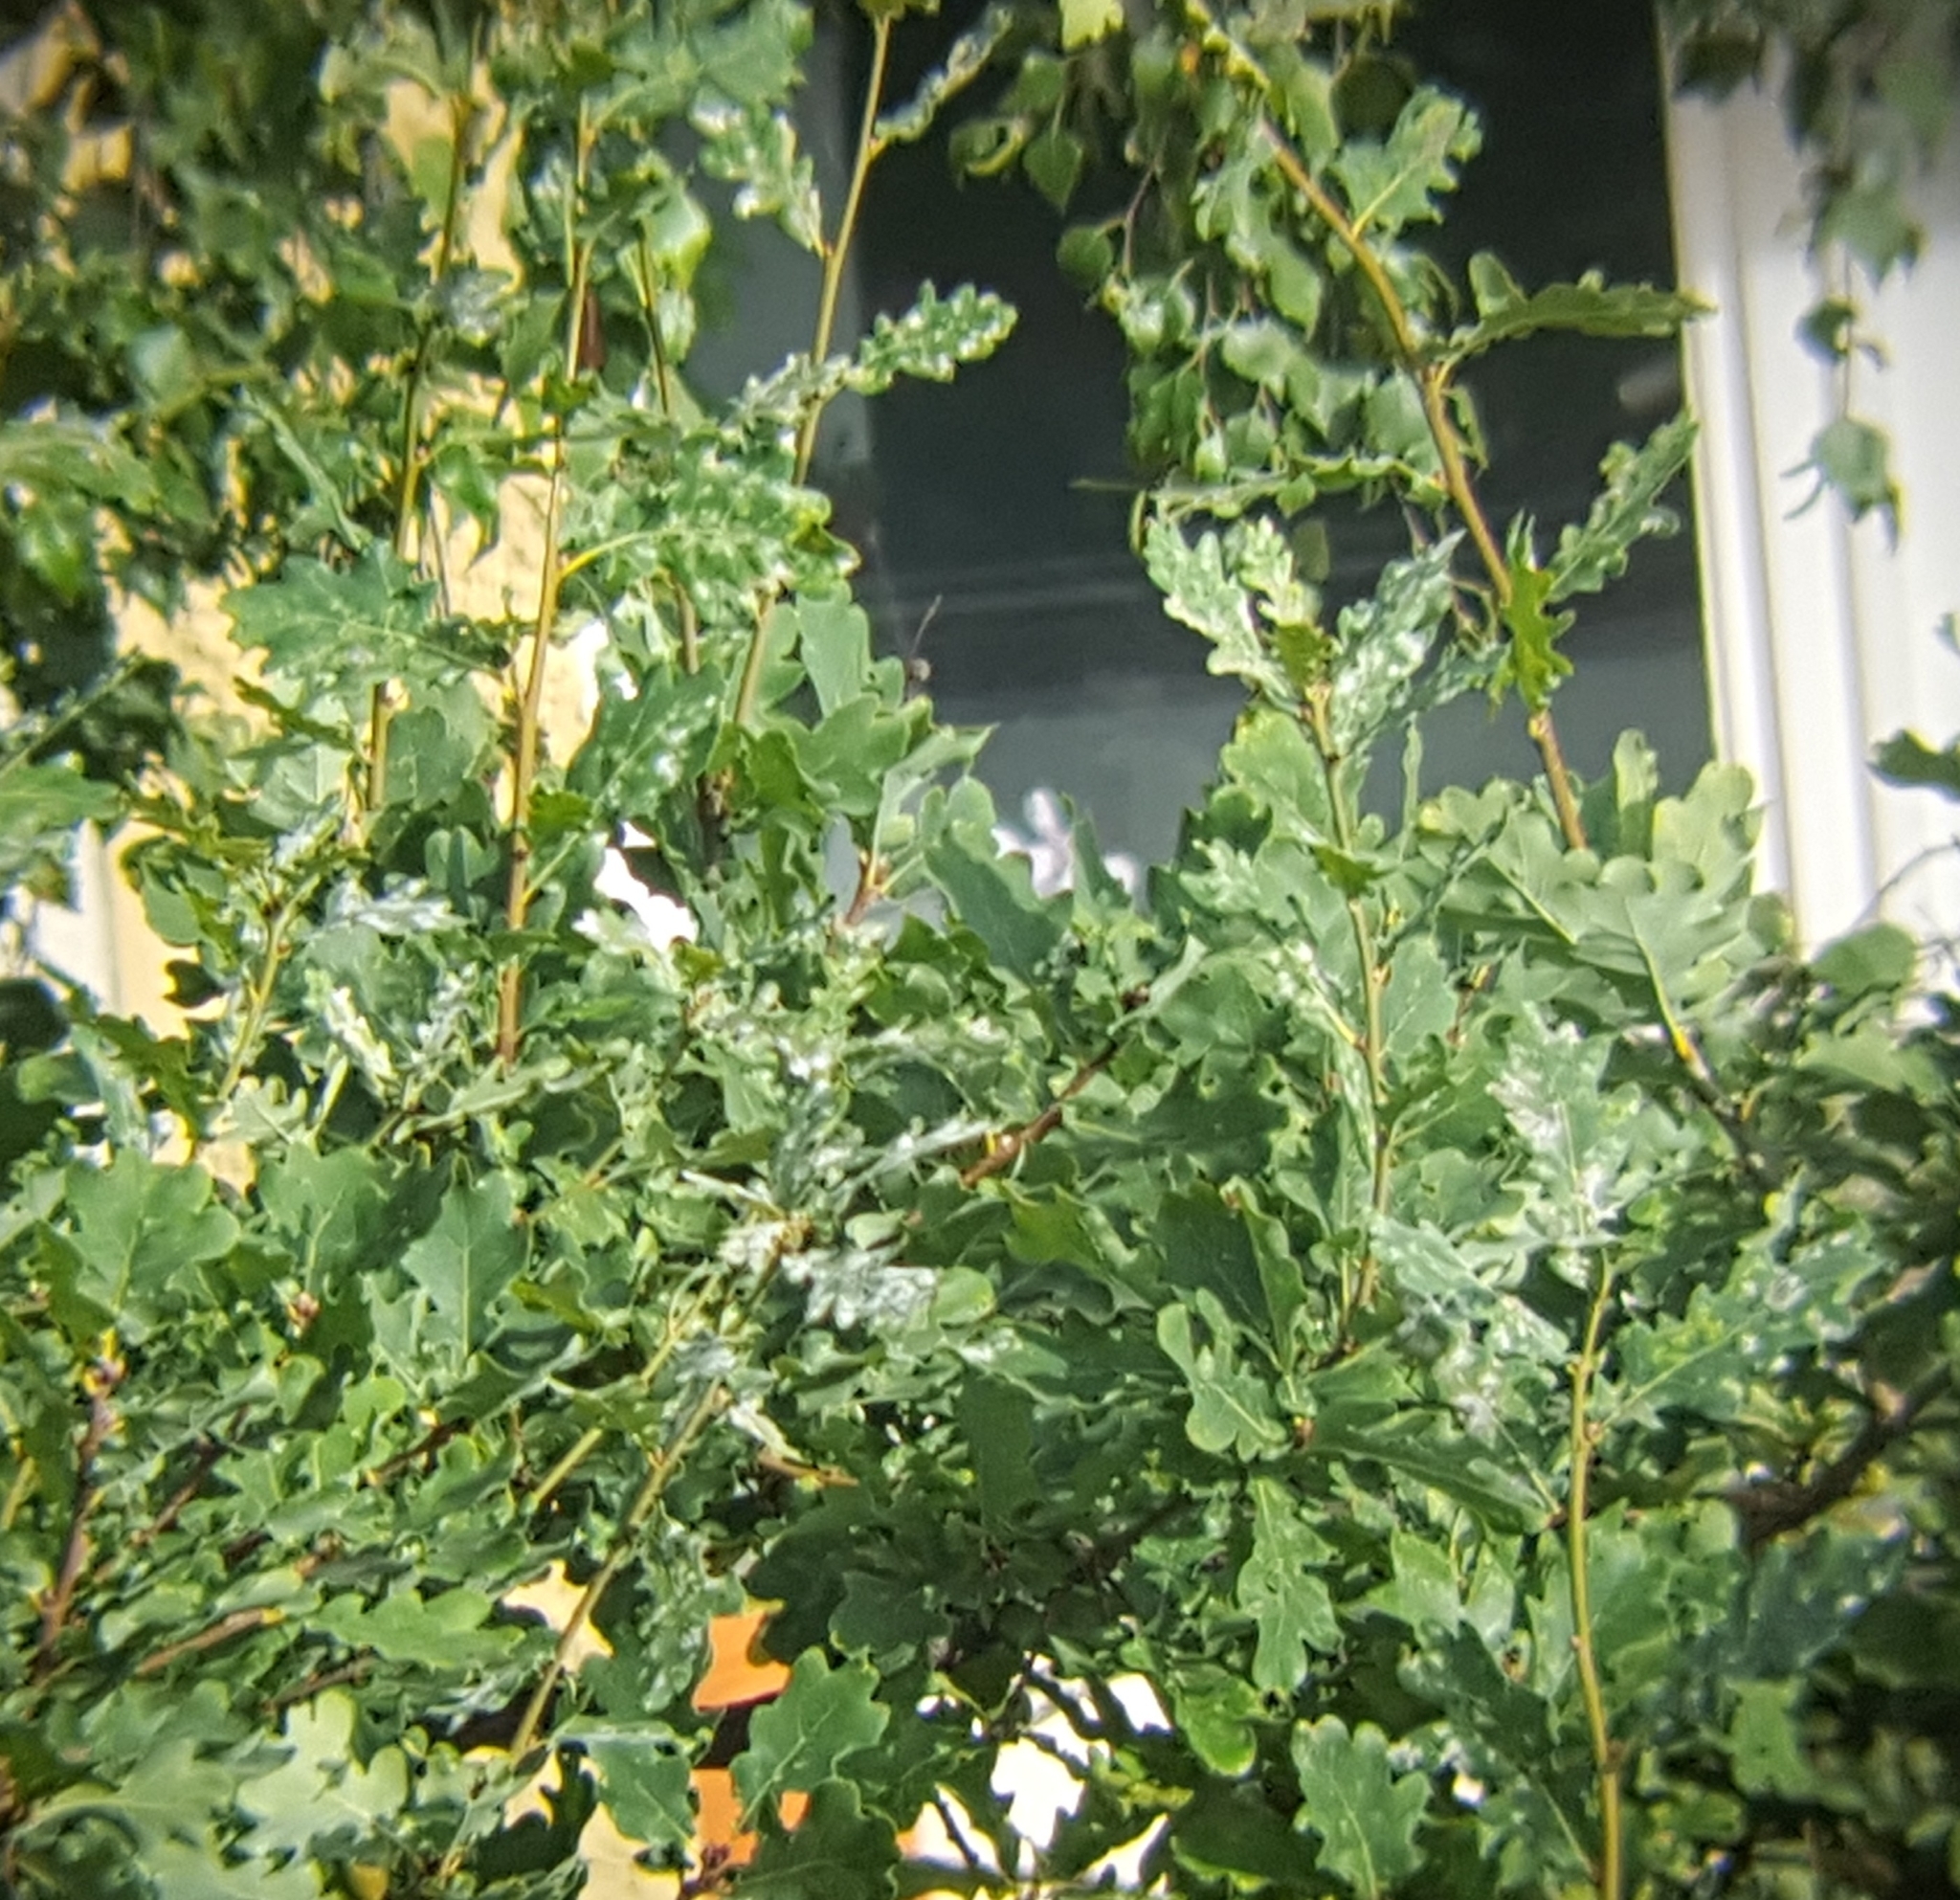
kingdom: Fungi
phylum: Ascomycota
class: Leotiomycetes
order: Helotiales
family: Erysiphaceae
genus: Erysiphe
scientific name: Erysiphe
